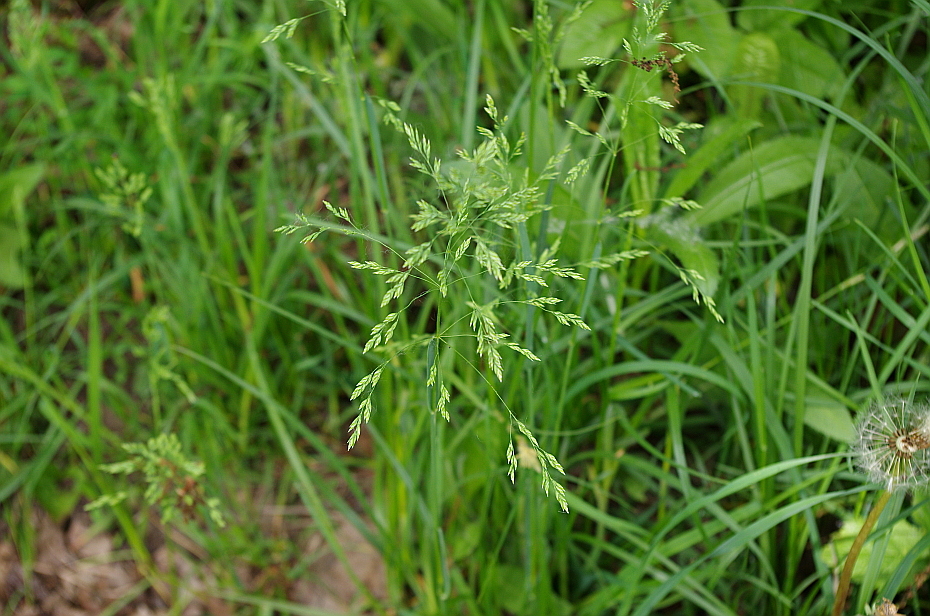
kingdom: Plantae
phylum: Tracheophyta
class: Liliopsida
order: Poales
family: Poaceae
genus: Poa
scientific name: Poa trivialis
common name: Rough bluegrass
